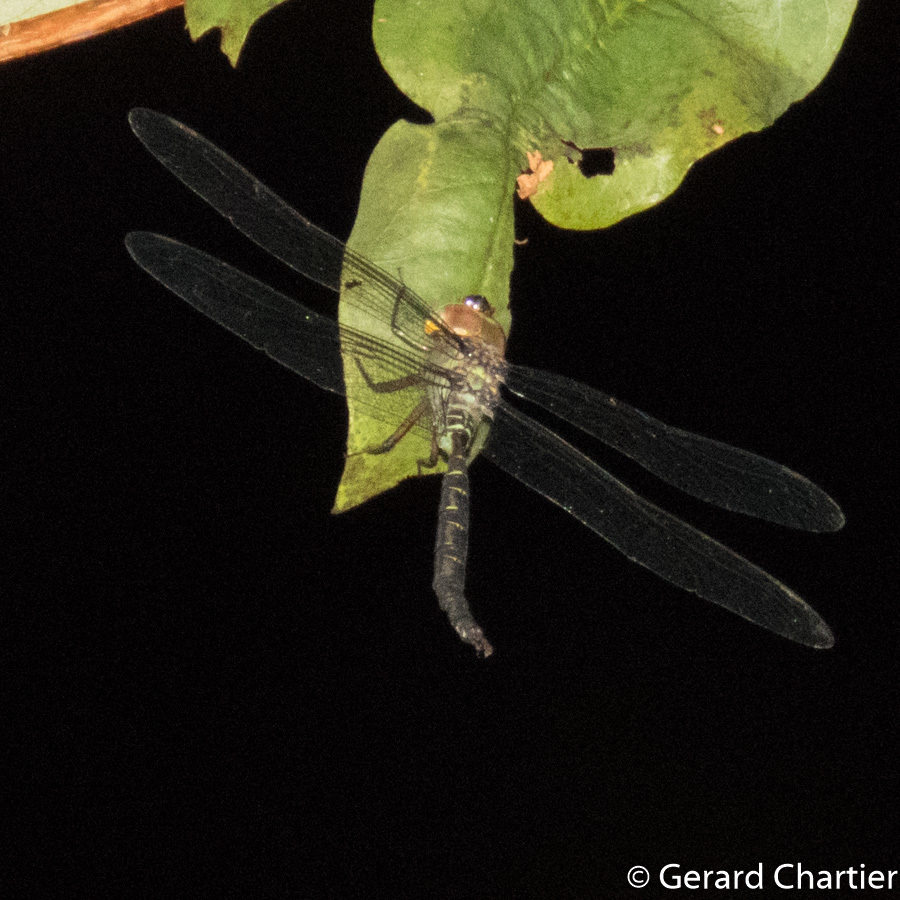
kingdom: Animalia
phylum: Arthropoda
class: Insecta
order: Odonata
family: Aeshnidae
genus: Heliaeschna
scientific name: Heliaeschna crassa
